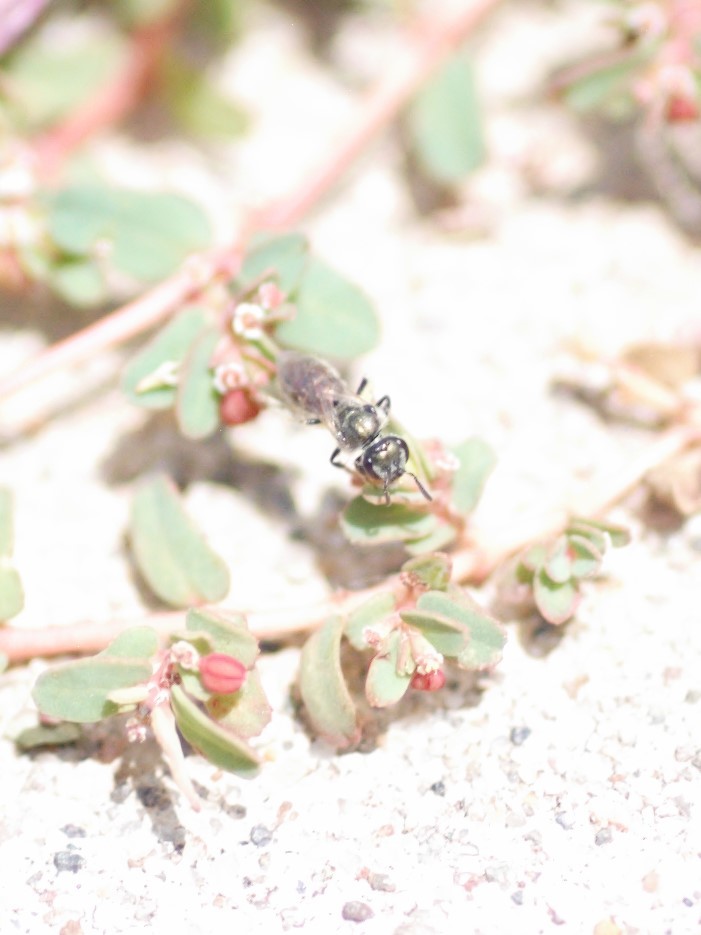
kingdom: Animalia
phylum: Arthropoda
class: Insecta
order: Hymenoptera
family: Halictidae
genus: Dialictus
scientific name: Dialictus
